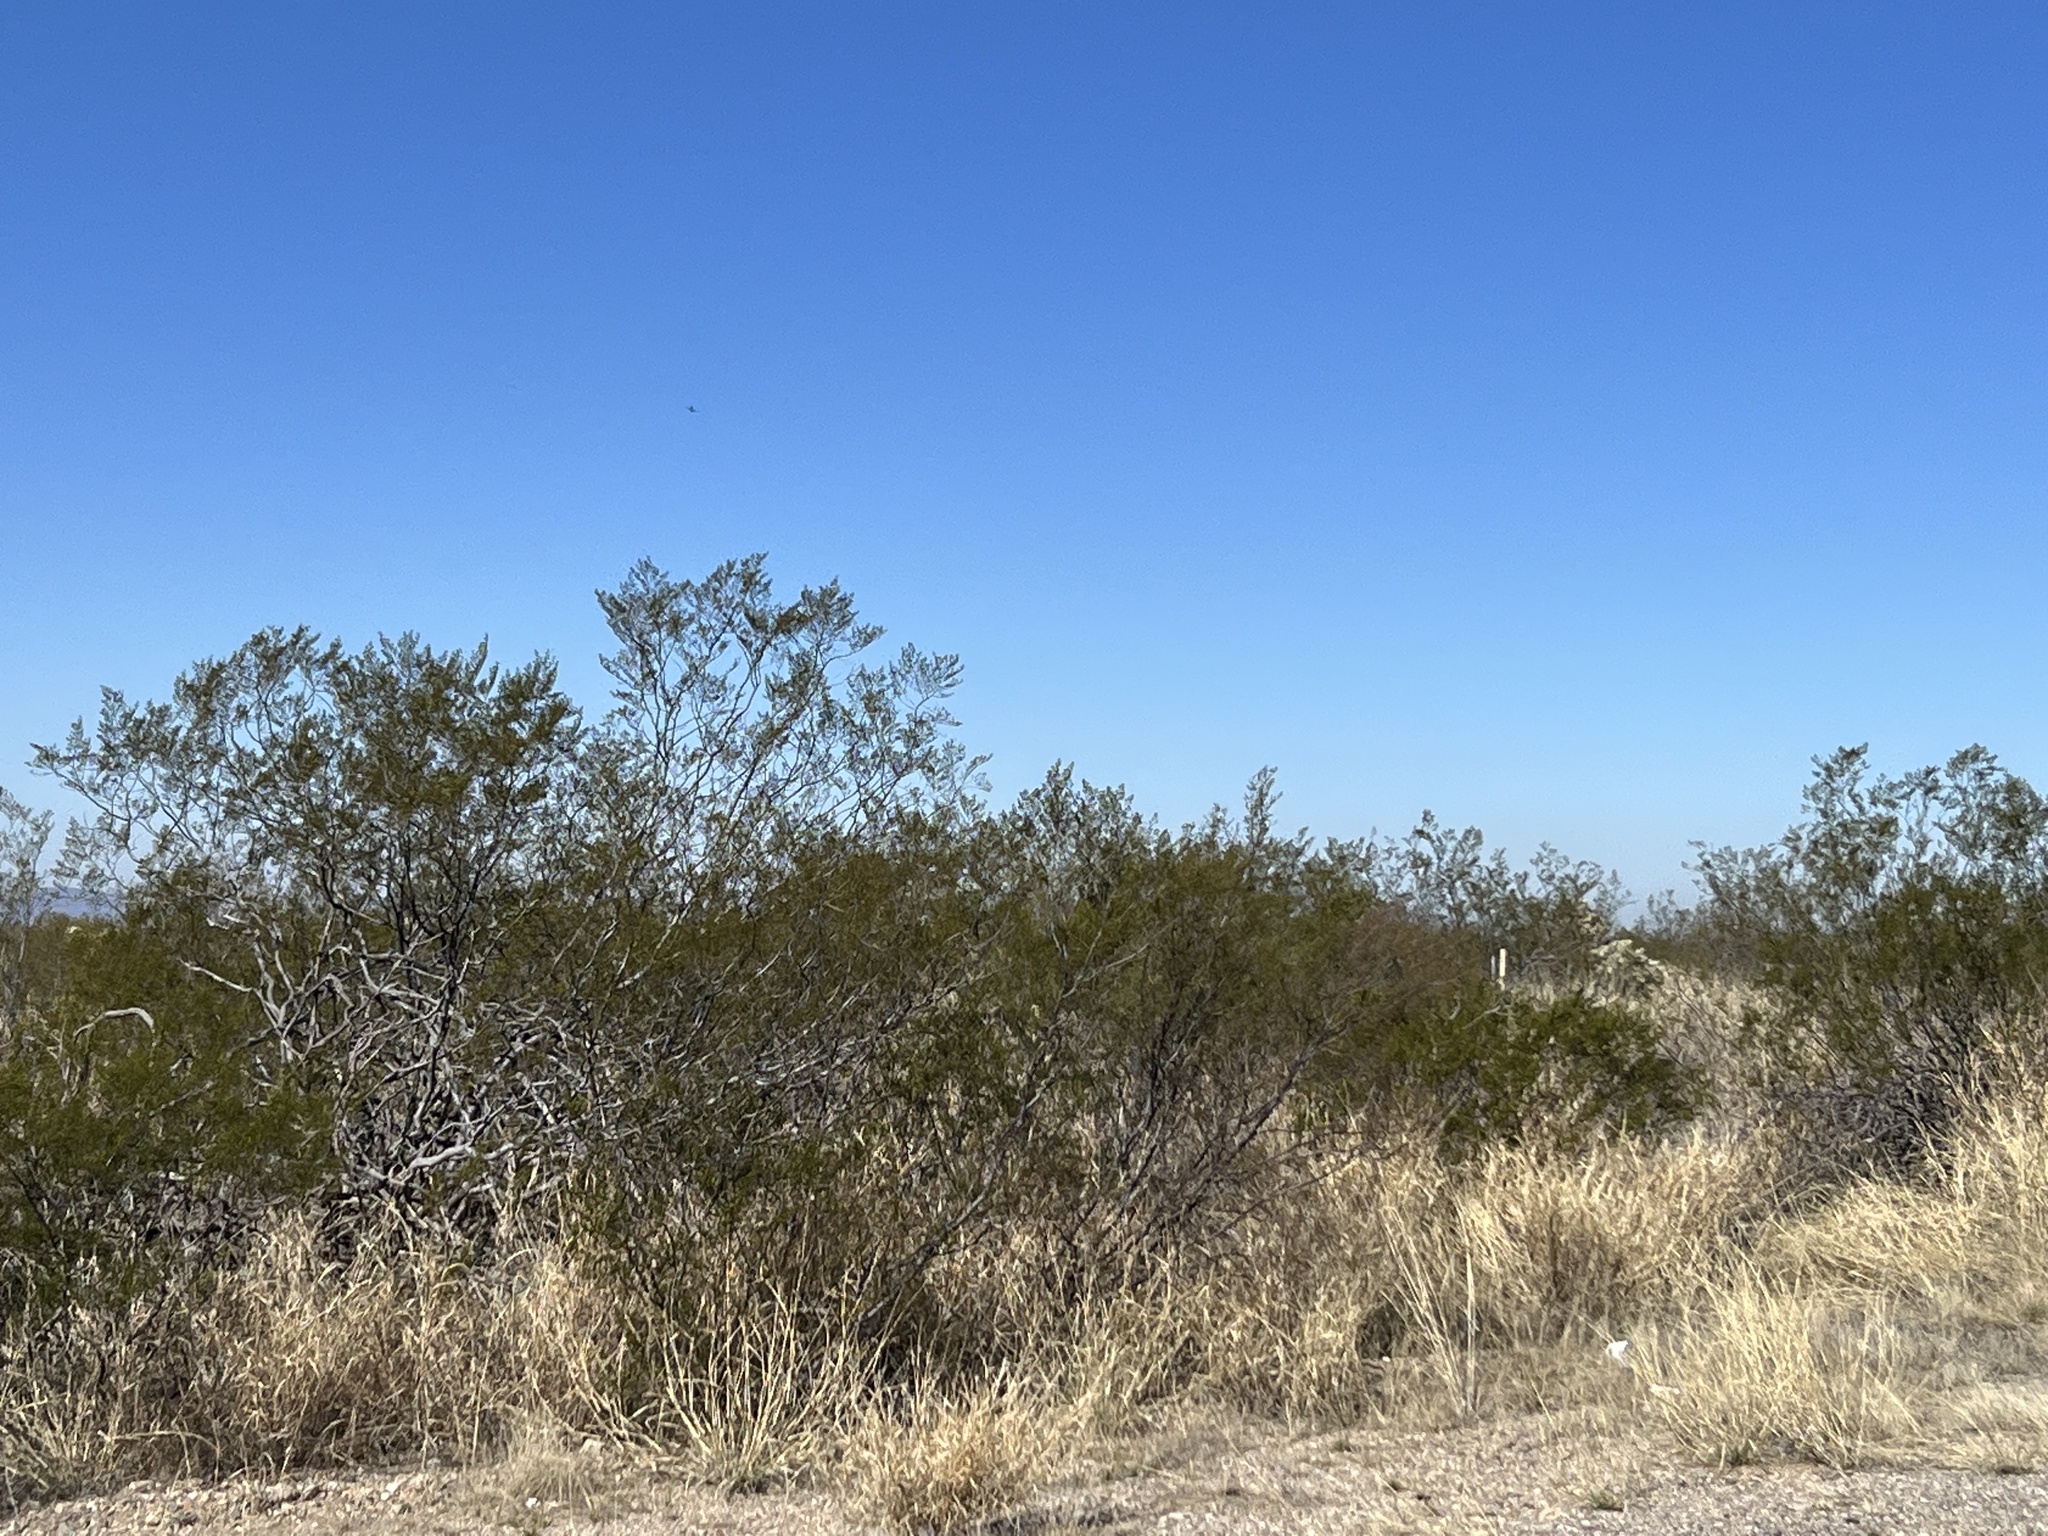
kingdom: Plantae
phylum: Tracheophyta
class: Magnoliopsida
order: Zygophyllales
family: Zygophyllaceae
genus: Larrea
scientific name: Larrea tridentata
